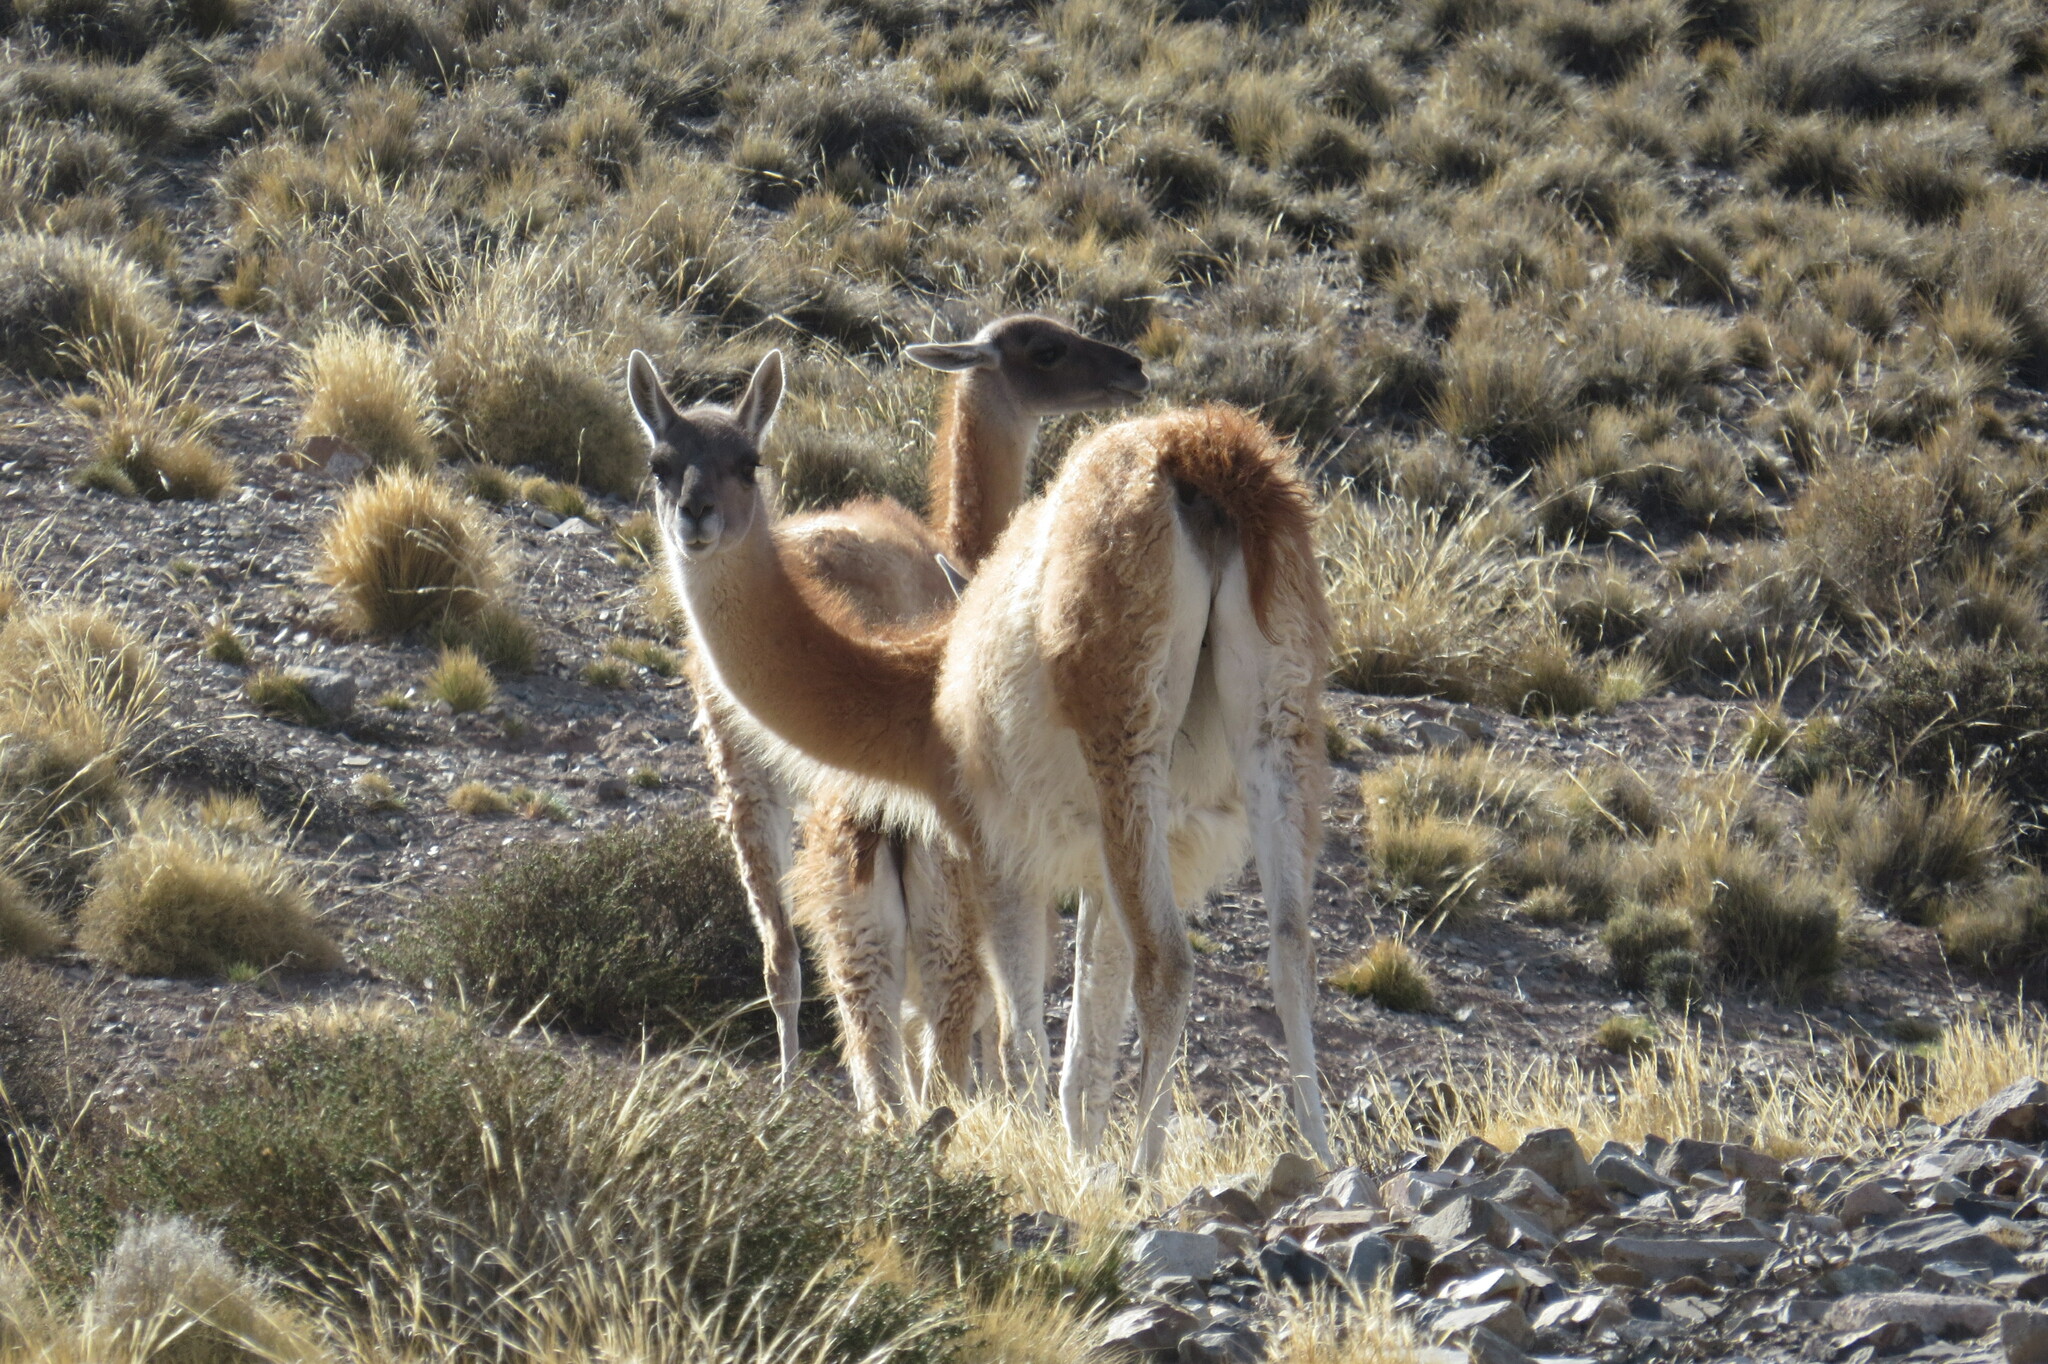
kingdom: Animalia
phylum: Chordata
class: Mammalia
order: Artiodactyla
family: Camelidae
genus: Lama
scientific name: Lama glama
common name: Llama
